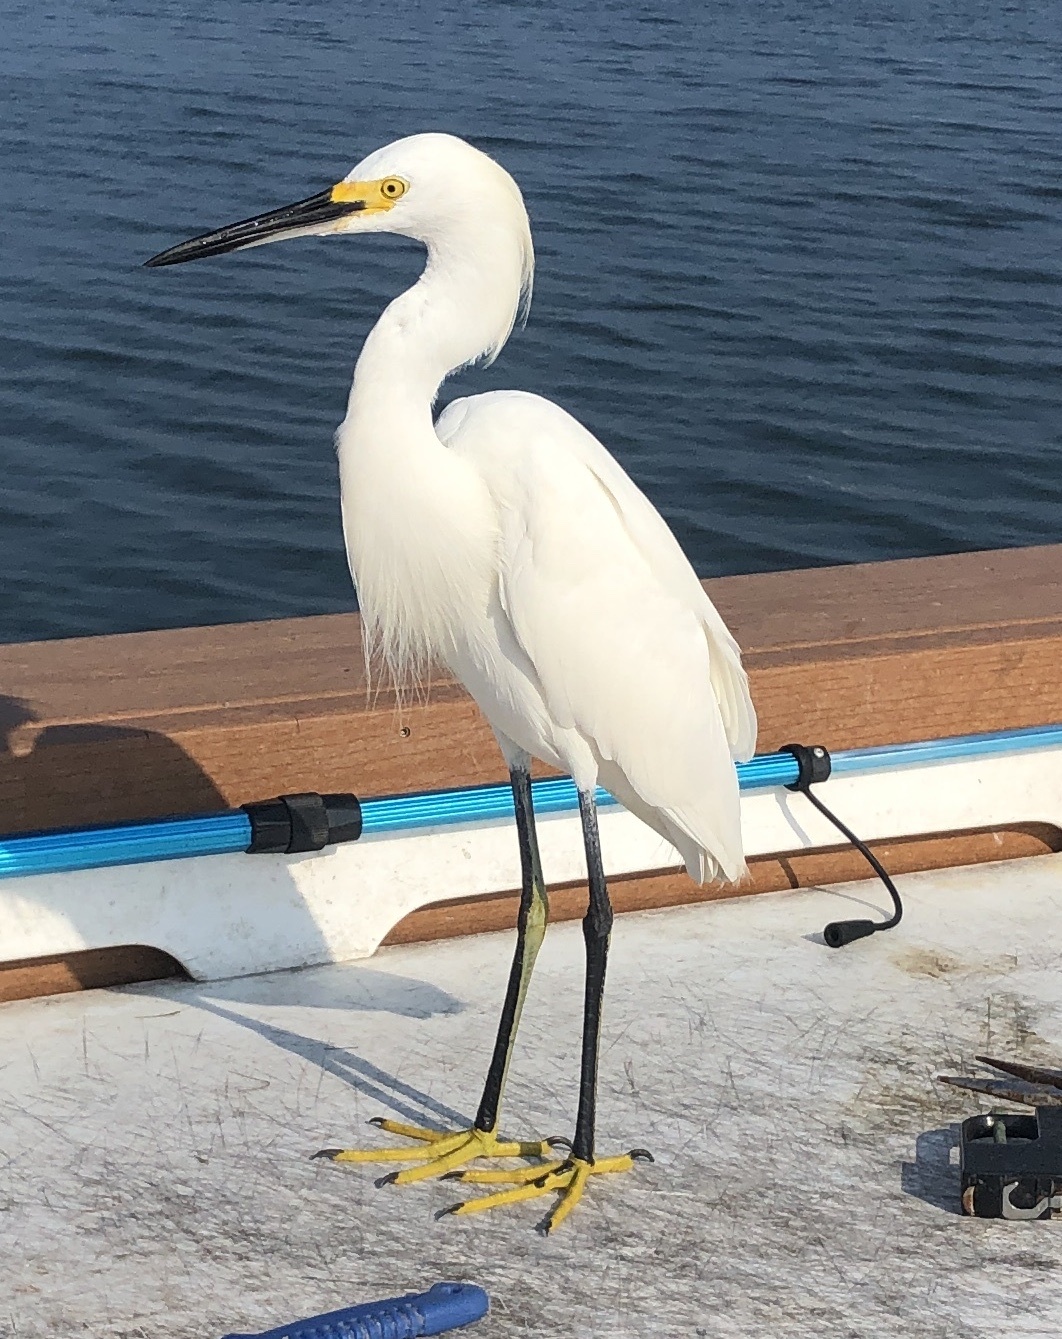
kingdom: Animalia
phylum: Chordata
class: Aves
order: Pelecaniformes
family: Ardeidae
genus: Egretta
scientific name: Egretta thula
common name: Snowy egret
